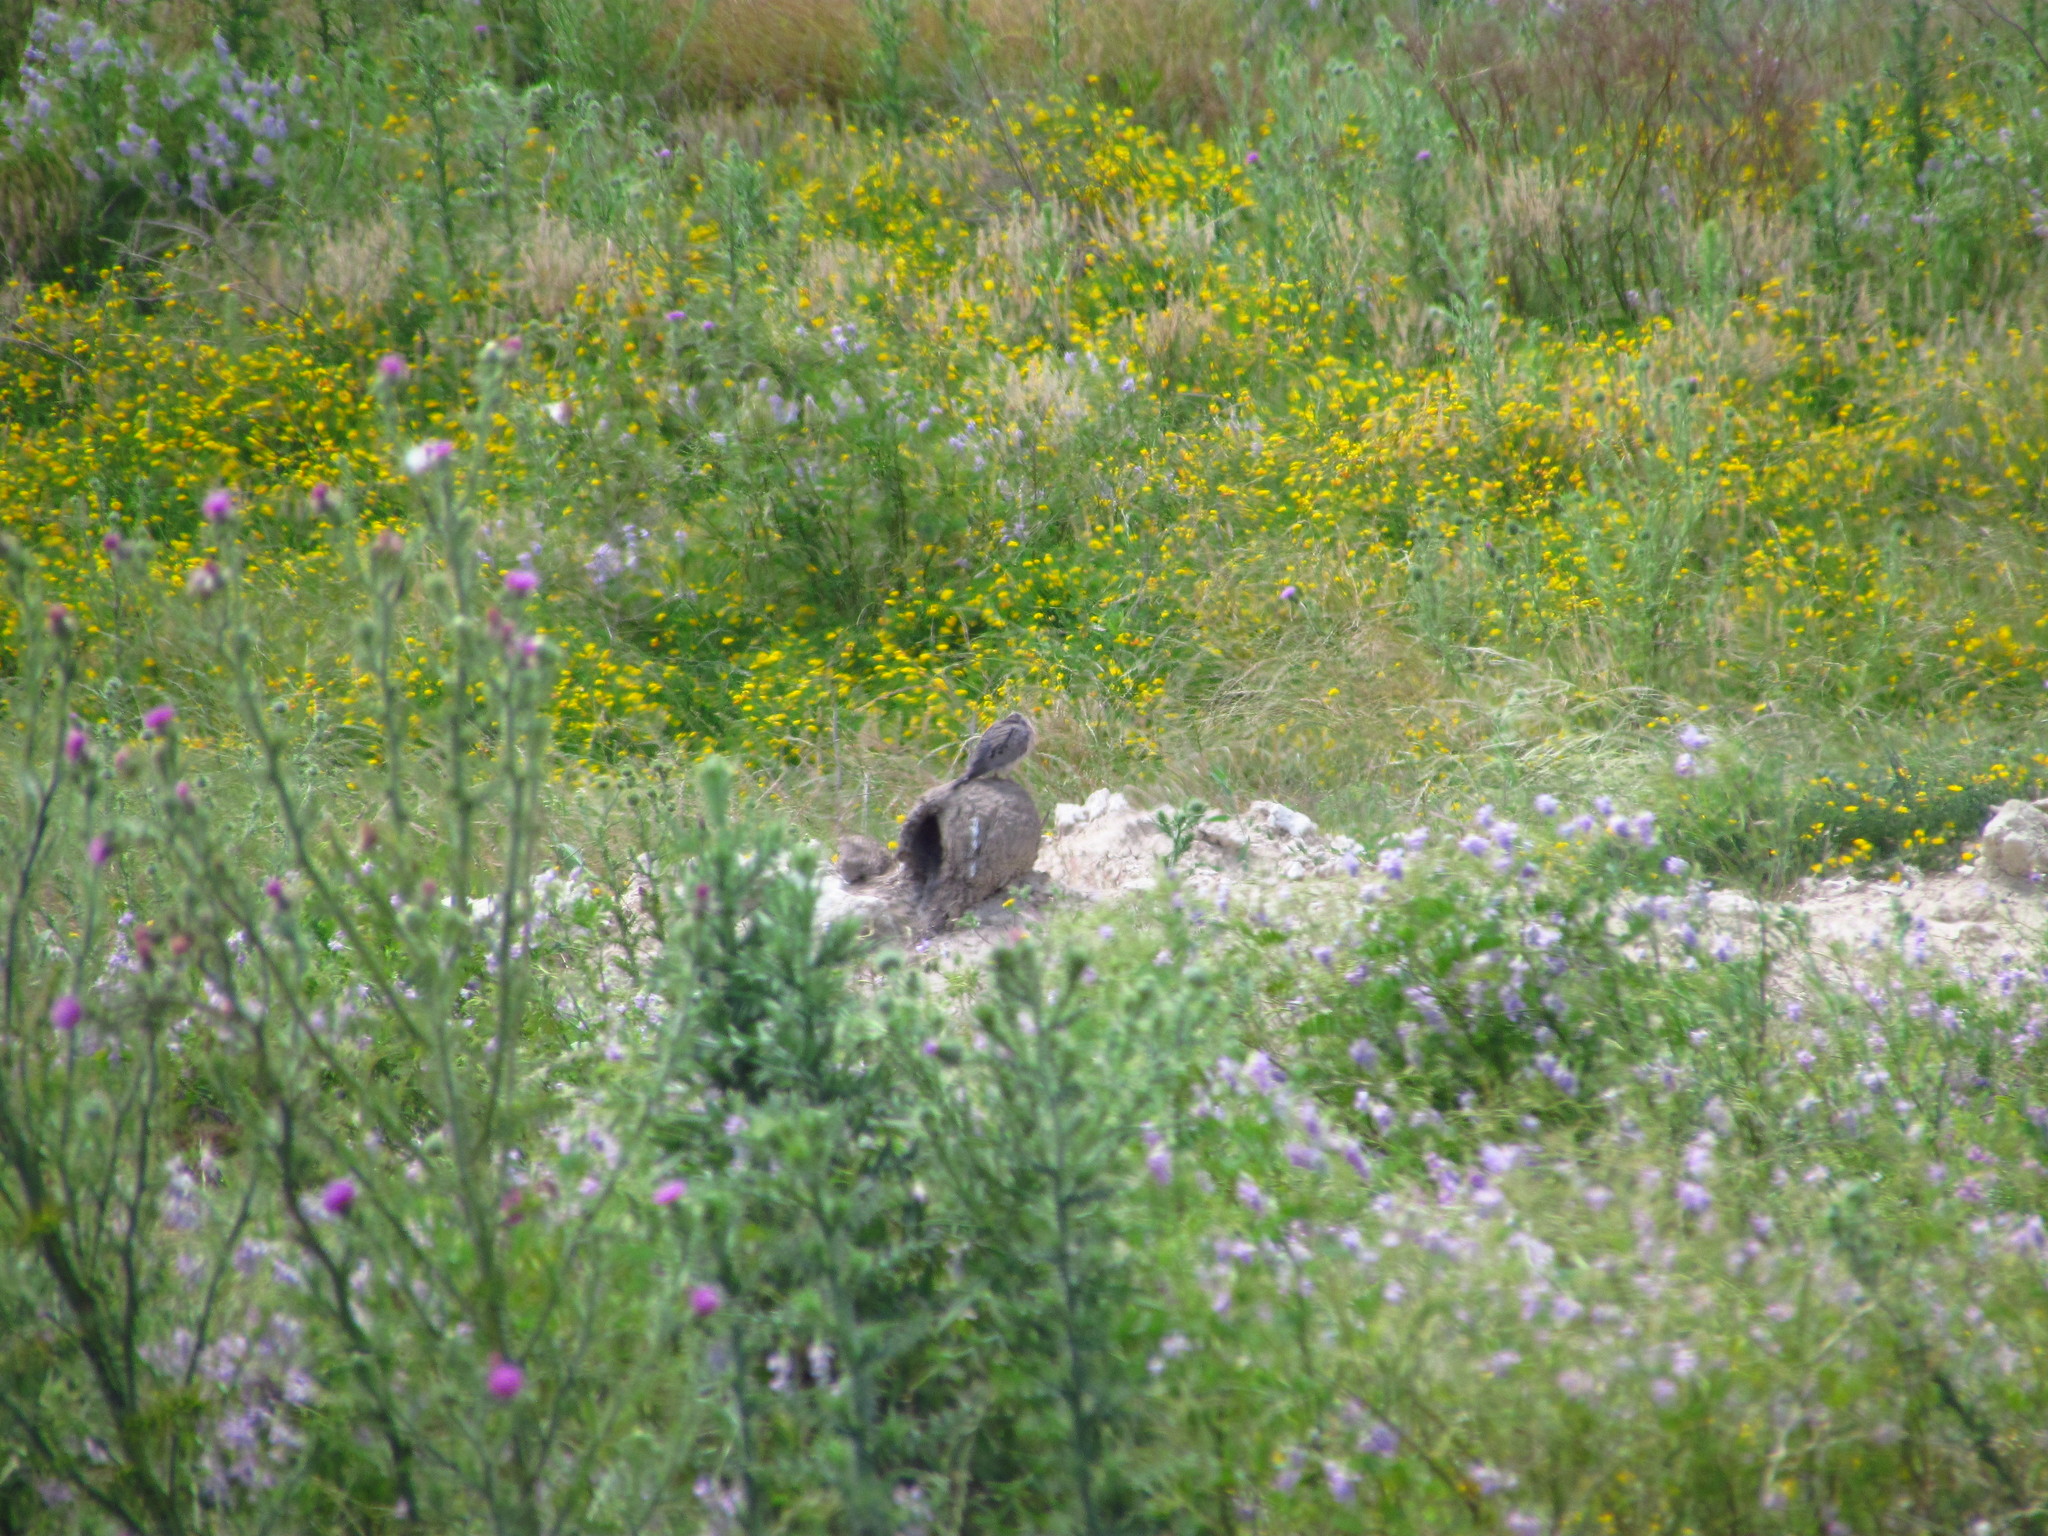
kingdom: Animalia
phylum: Chordata
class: Aves
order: Columbiformes
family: Columbidae
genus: Zenaida
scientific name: Zenaida auriculata
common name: Eared dove
